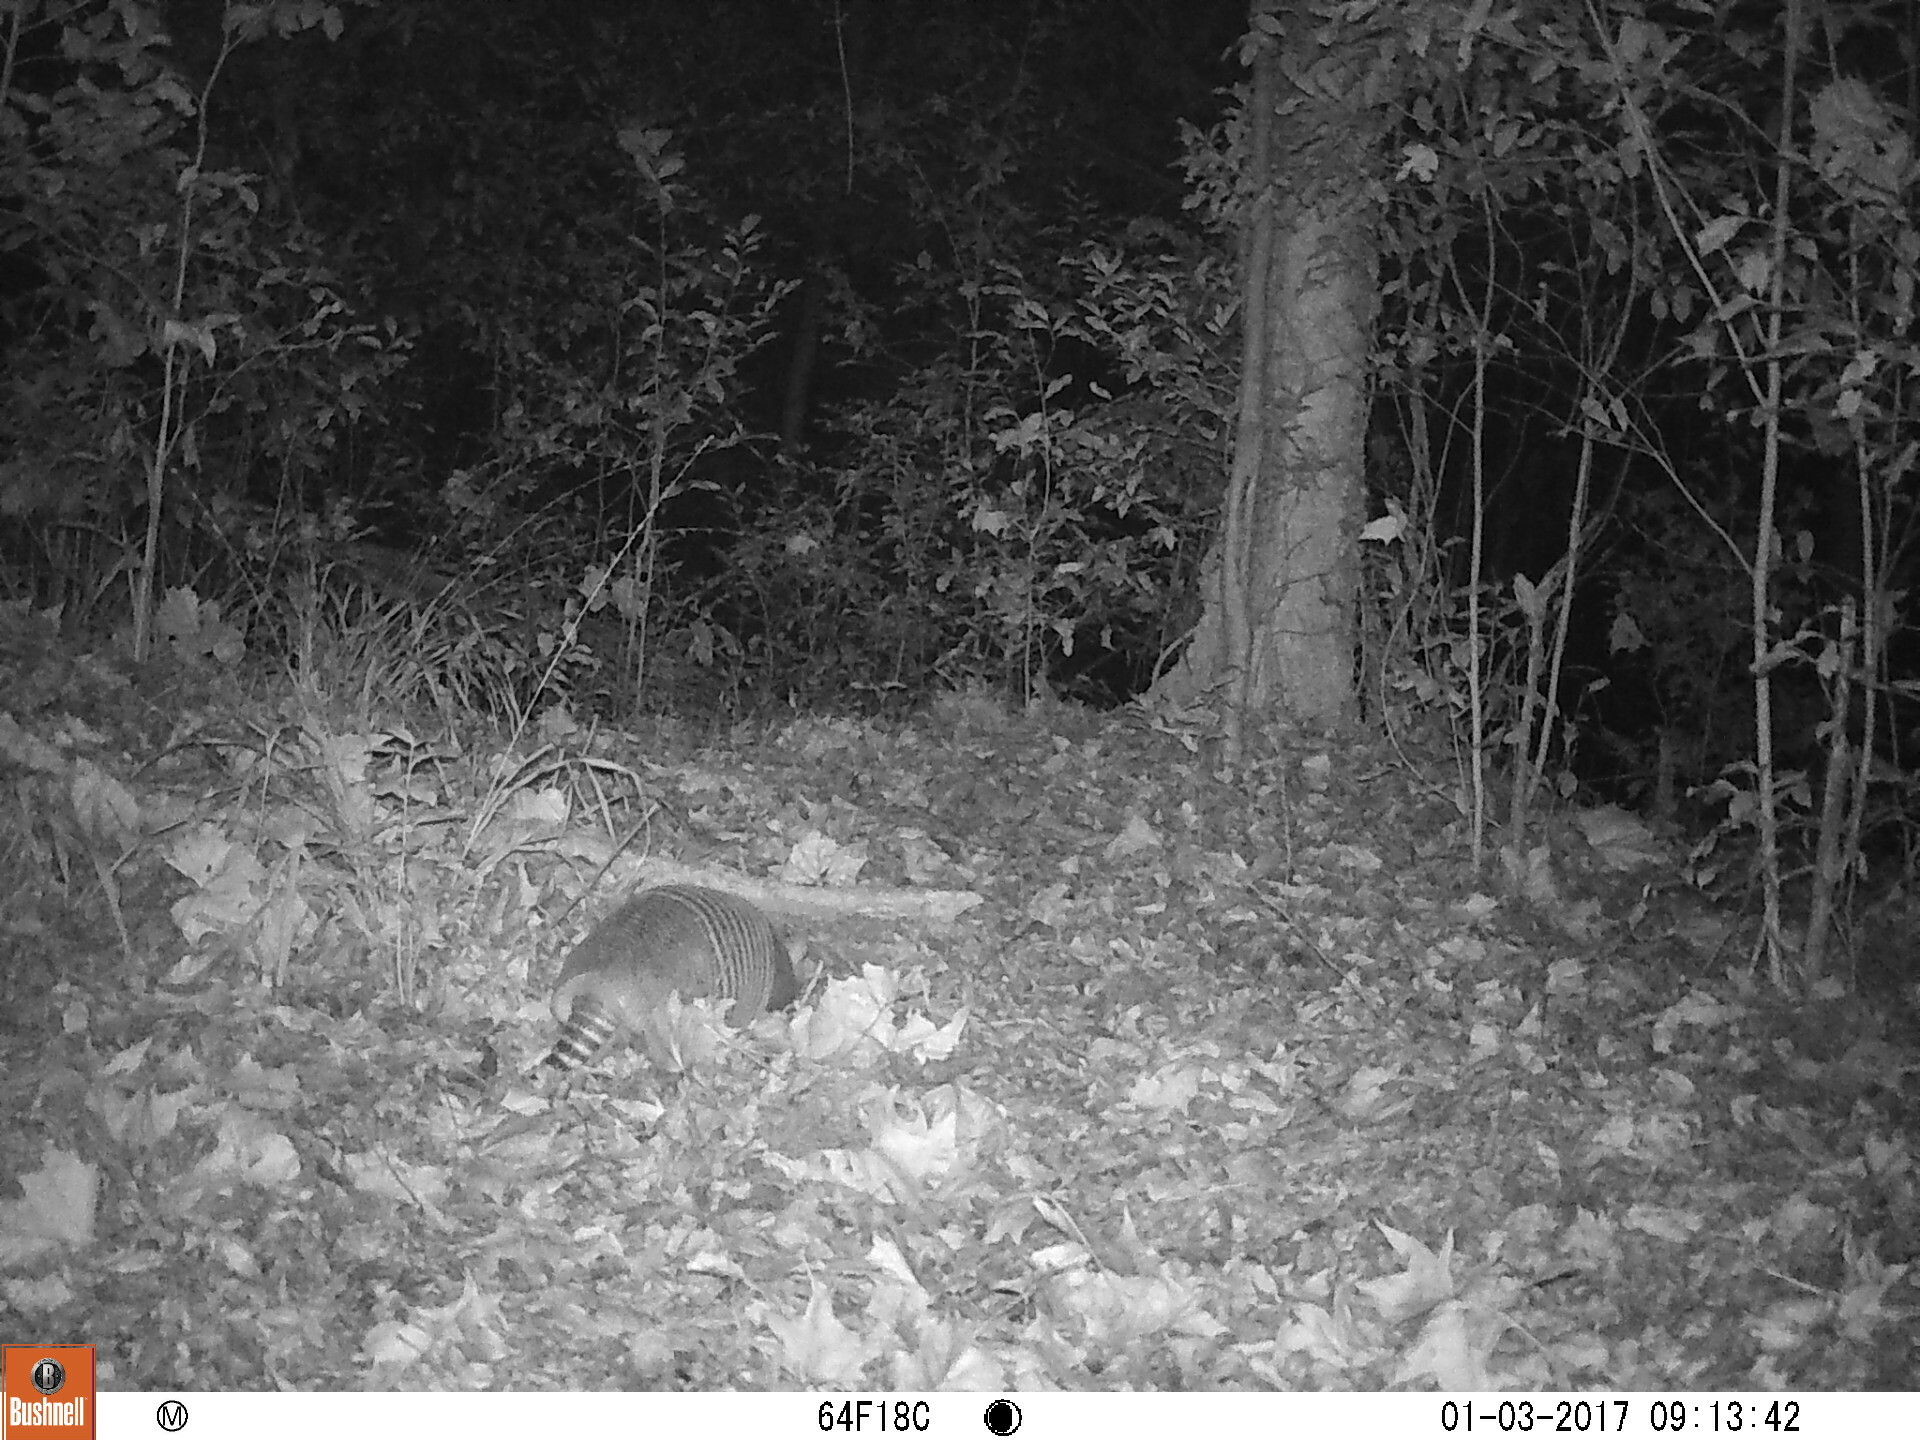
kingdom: Animalia
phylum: Chordata
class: Mammalia
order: Cingulata
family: Dasypodidae
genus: Dasypus
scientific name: Dasypus novemcinctus
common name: Nine-banded armadillo
